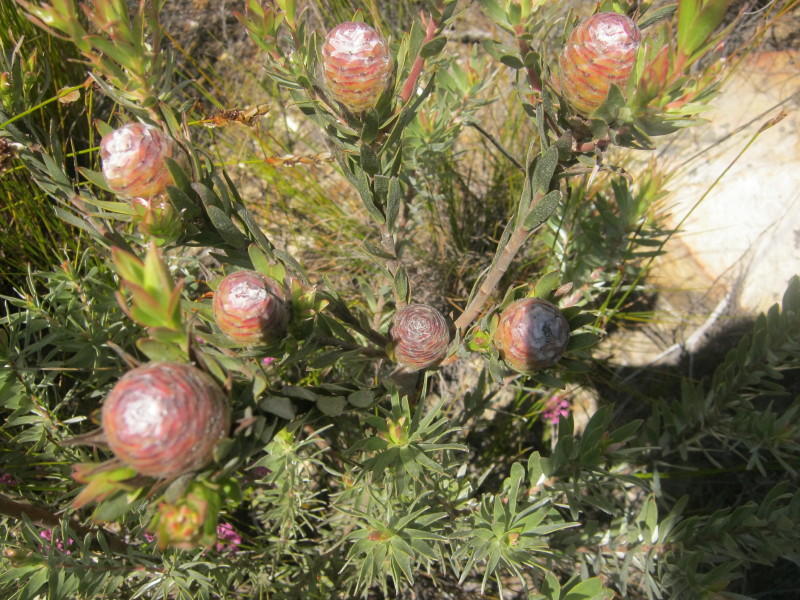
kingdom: Plantae
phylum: Tracheophyta
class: Magnoliopsida
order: Proteales
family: Proteaceae
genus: Leucadendron
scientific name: Leucadendron uliginosum
